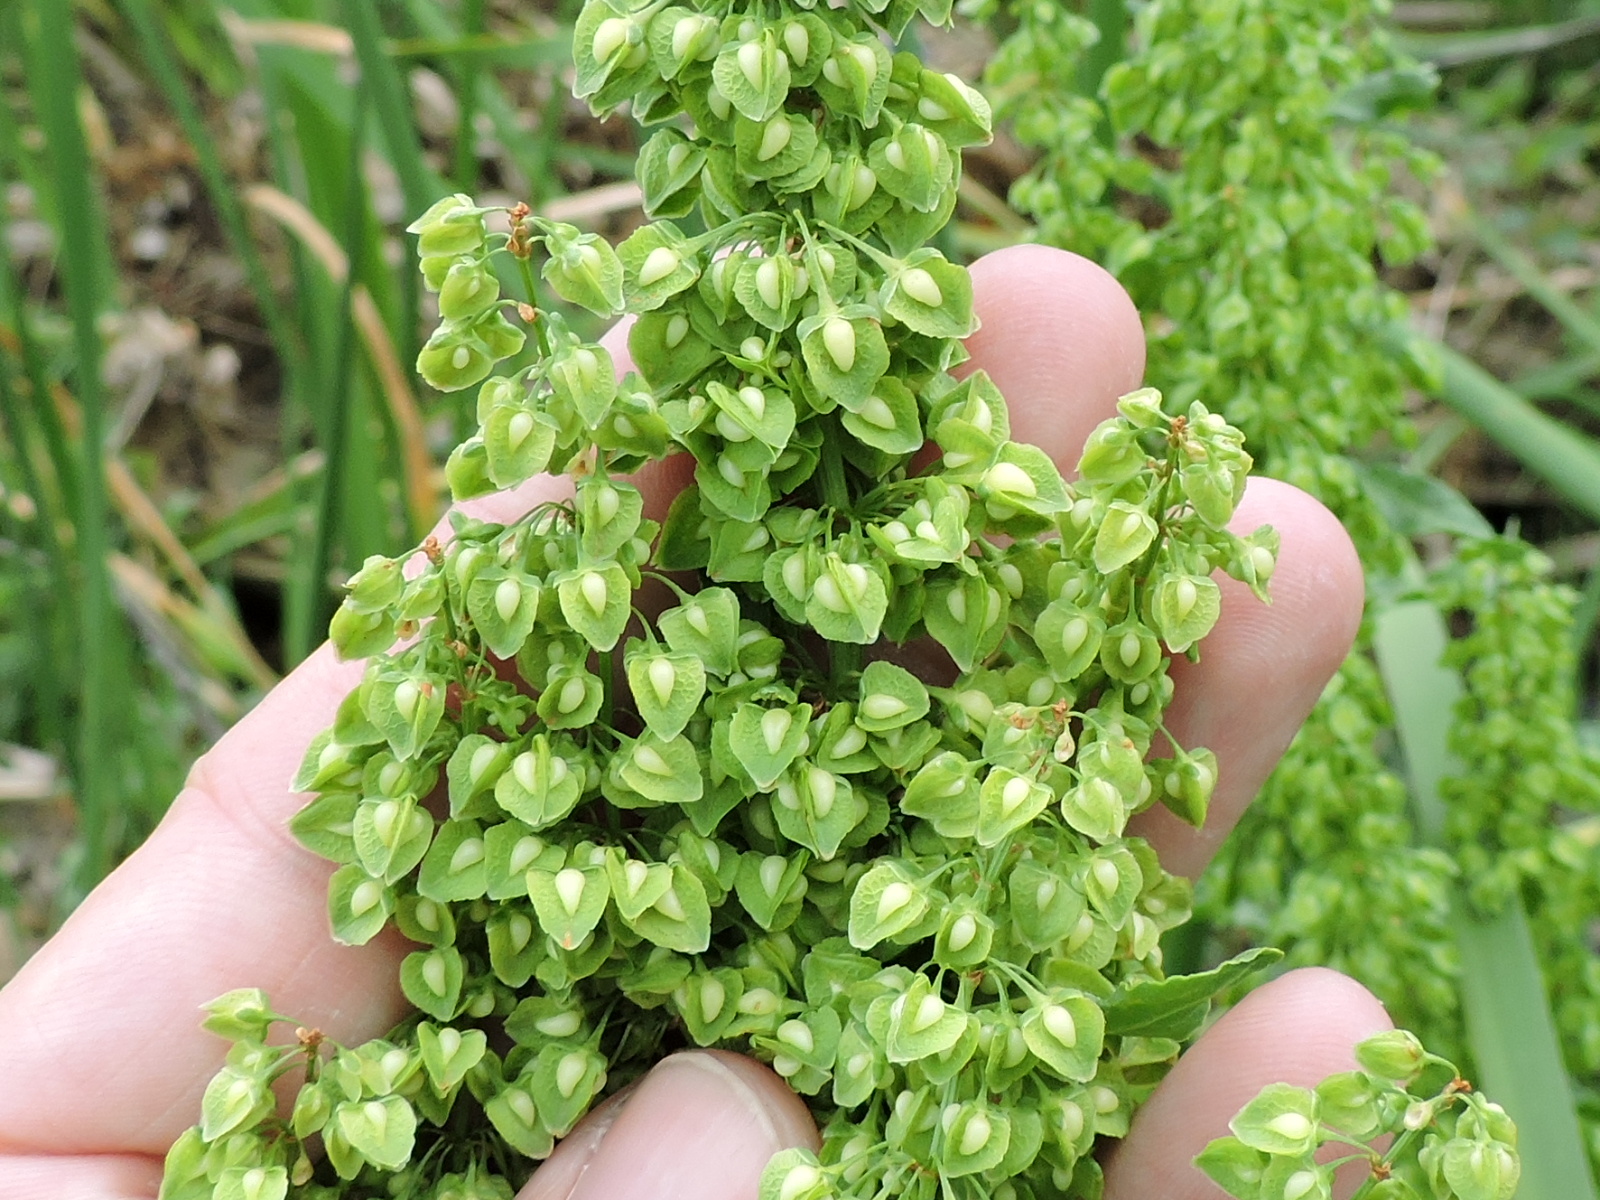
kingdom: Plantae
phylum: Tracheophyta
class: Magnoliopsida
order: Caryophyllales
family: Polygonaceae
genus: Rumex
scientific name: Rumex crispus
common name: Curled dock
